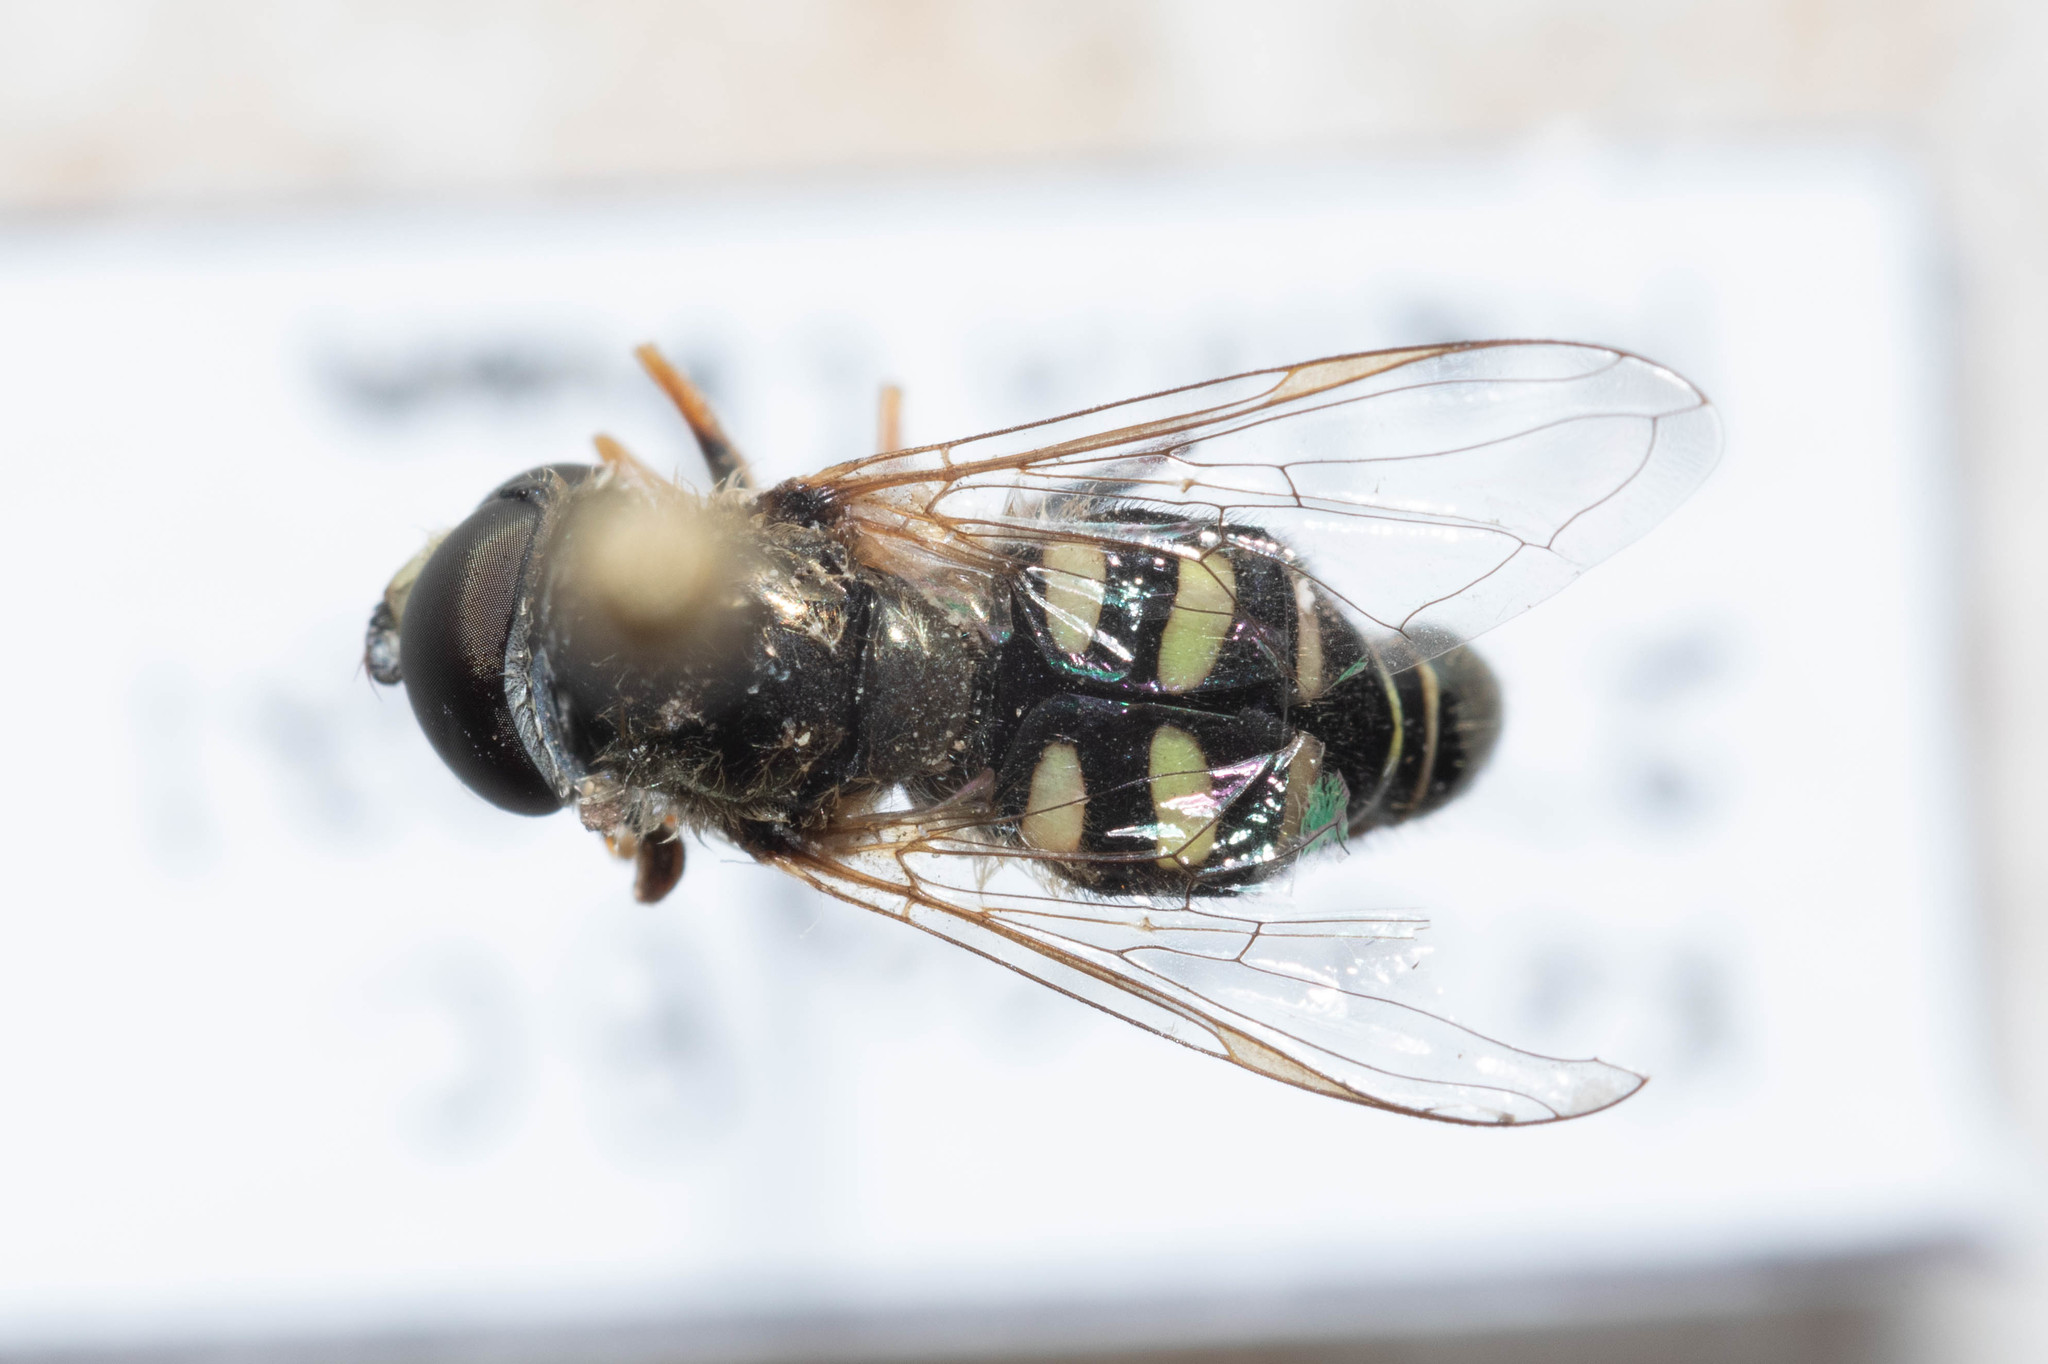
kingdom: Animalia
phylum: Arthropoda
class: Insecta
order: Diptera
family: Syrphidae
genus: Eupeodes
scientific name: Eupeodes volucris
